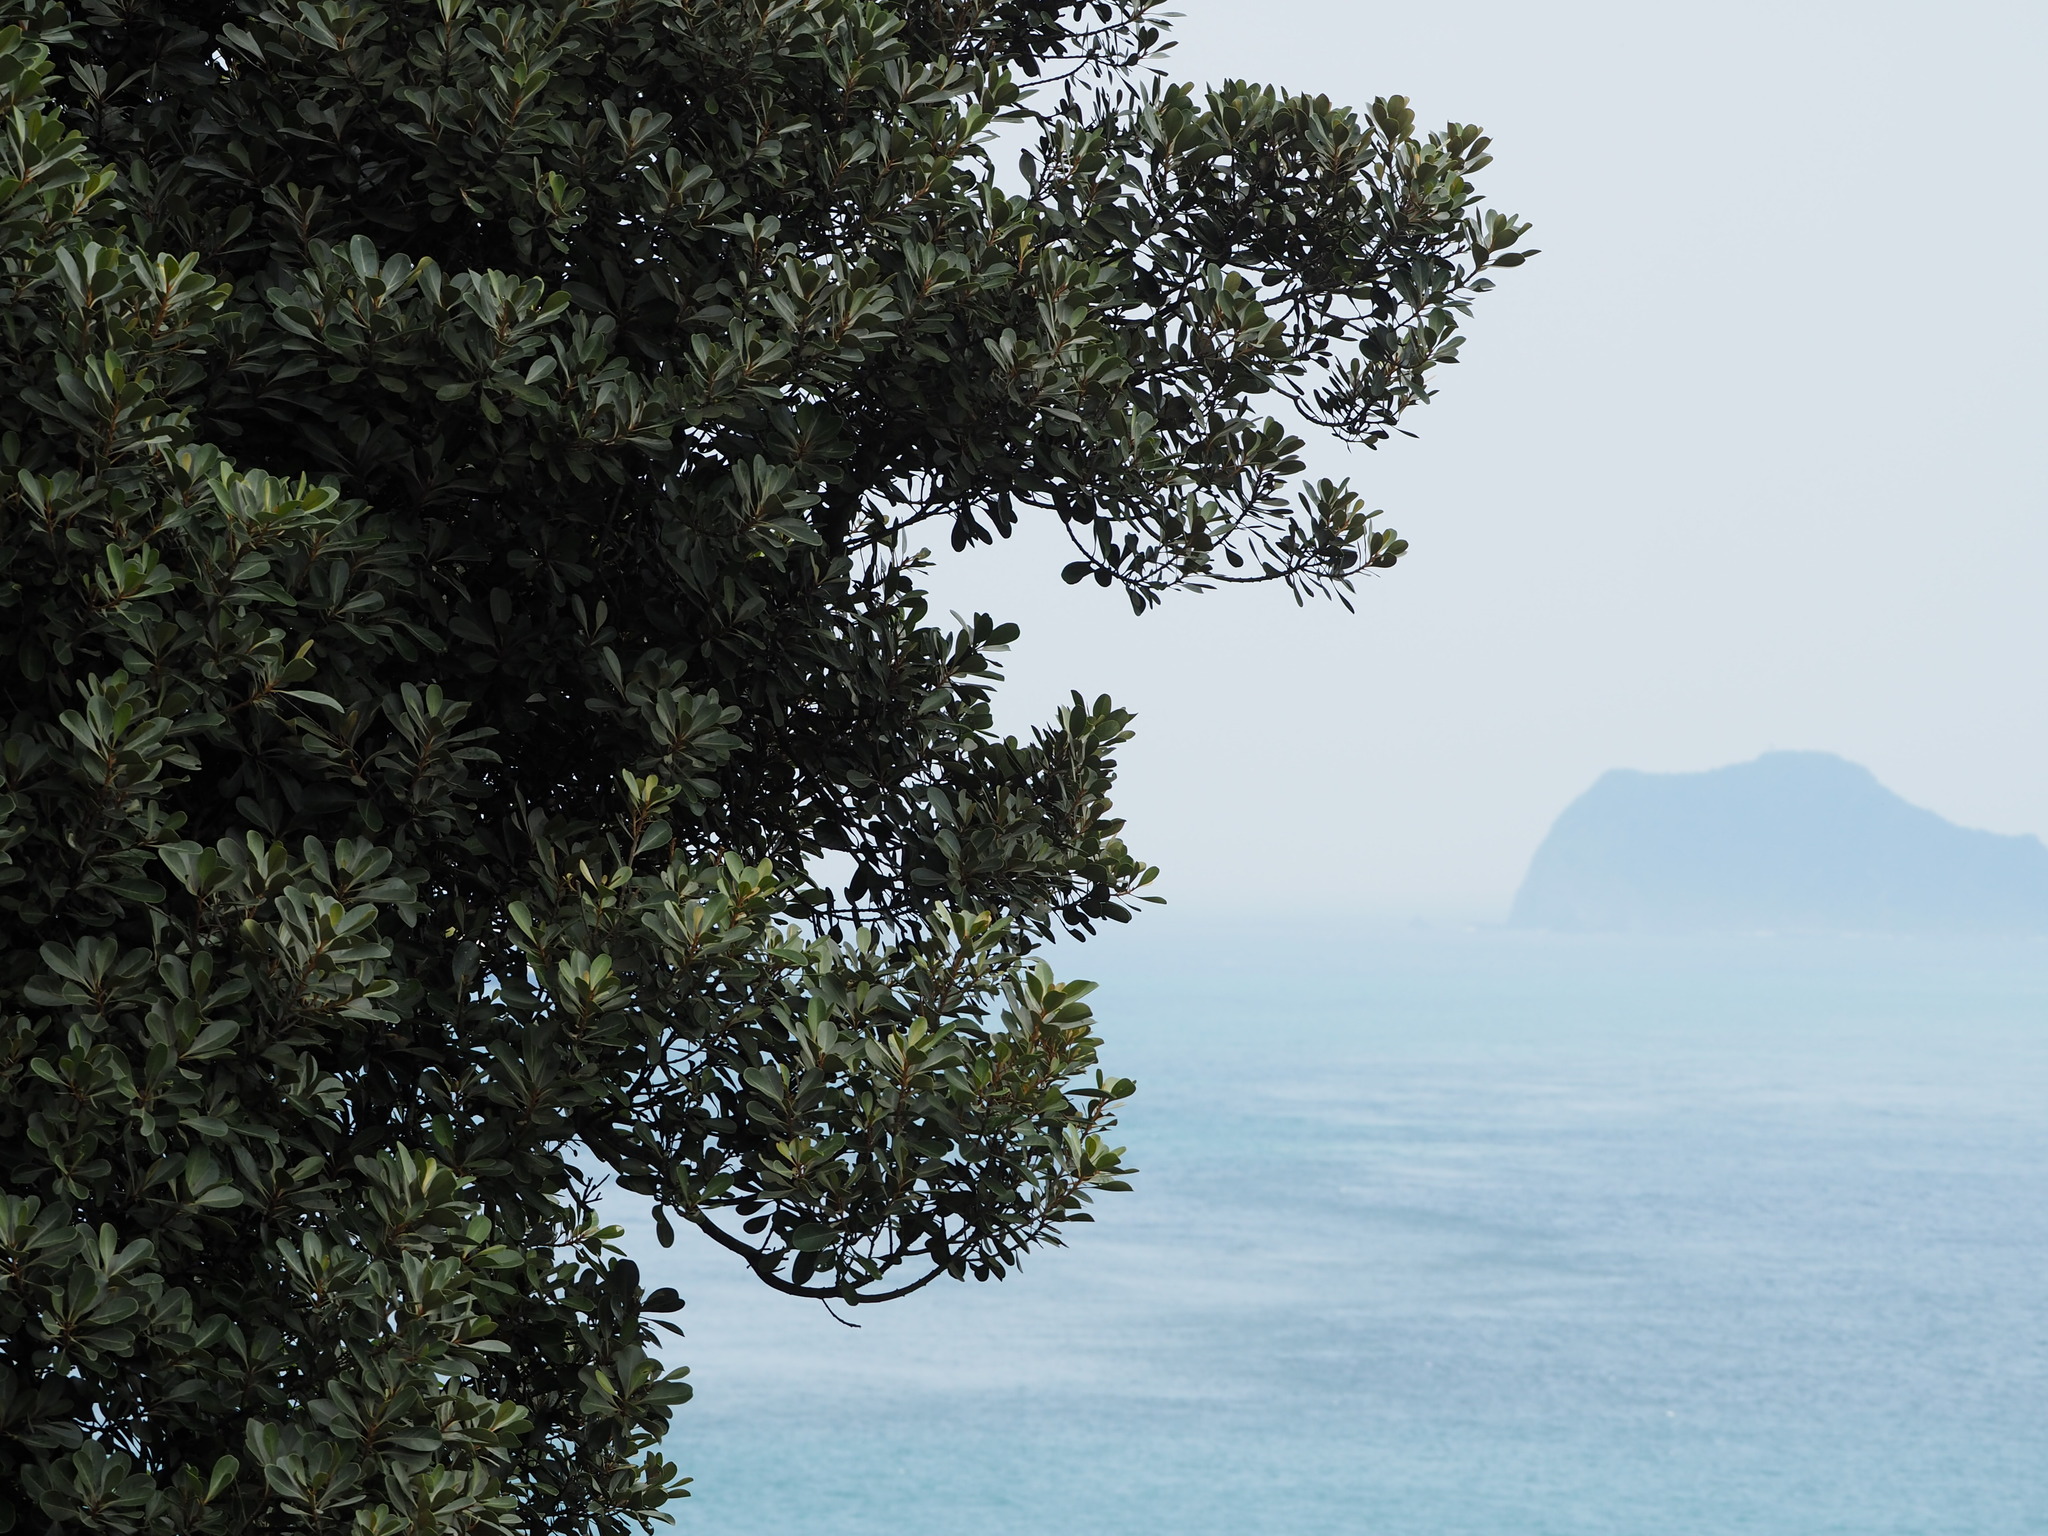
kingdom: Plantae
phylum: Tracheophyta
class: Magnoliopsida
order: Ericales
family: Sapotaceae
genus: Planchonella
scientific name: Planchonella obovata
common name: Black-ash
